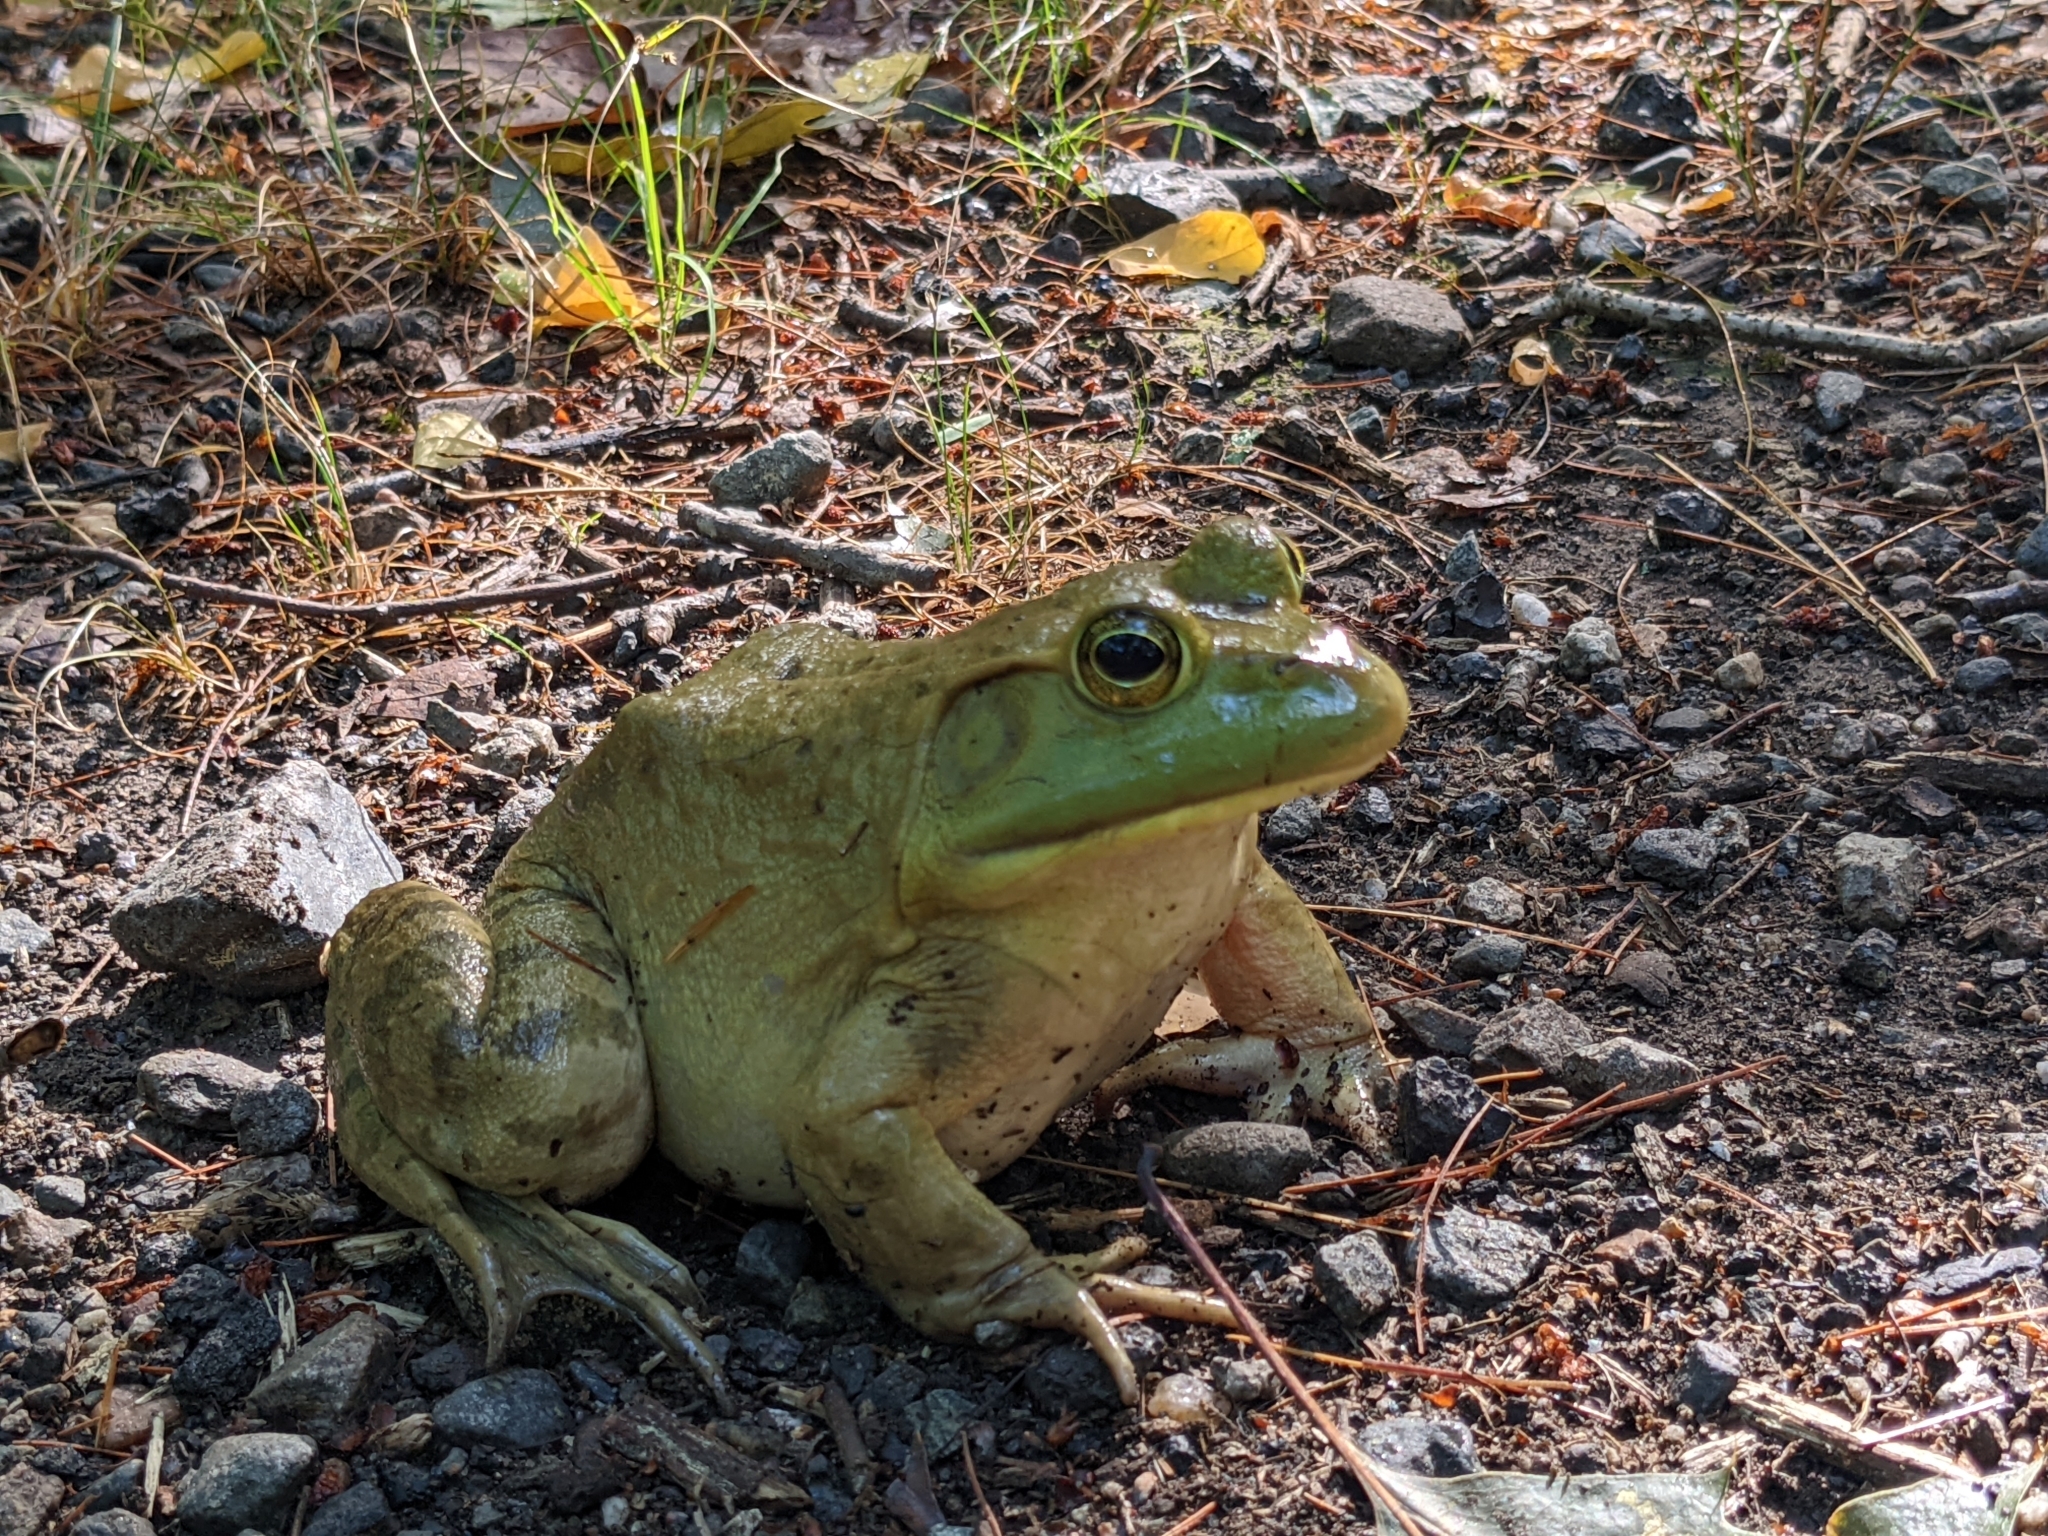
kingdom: Animalia
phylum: Chordata
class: Amphibia
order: Anura
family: Ranidae
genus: Lithobates
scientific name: Lithobates catesbeianus
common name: American bullfrog
